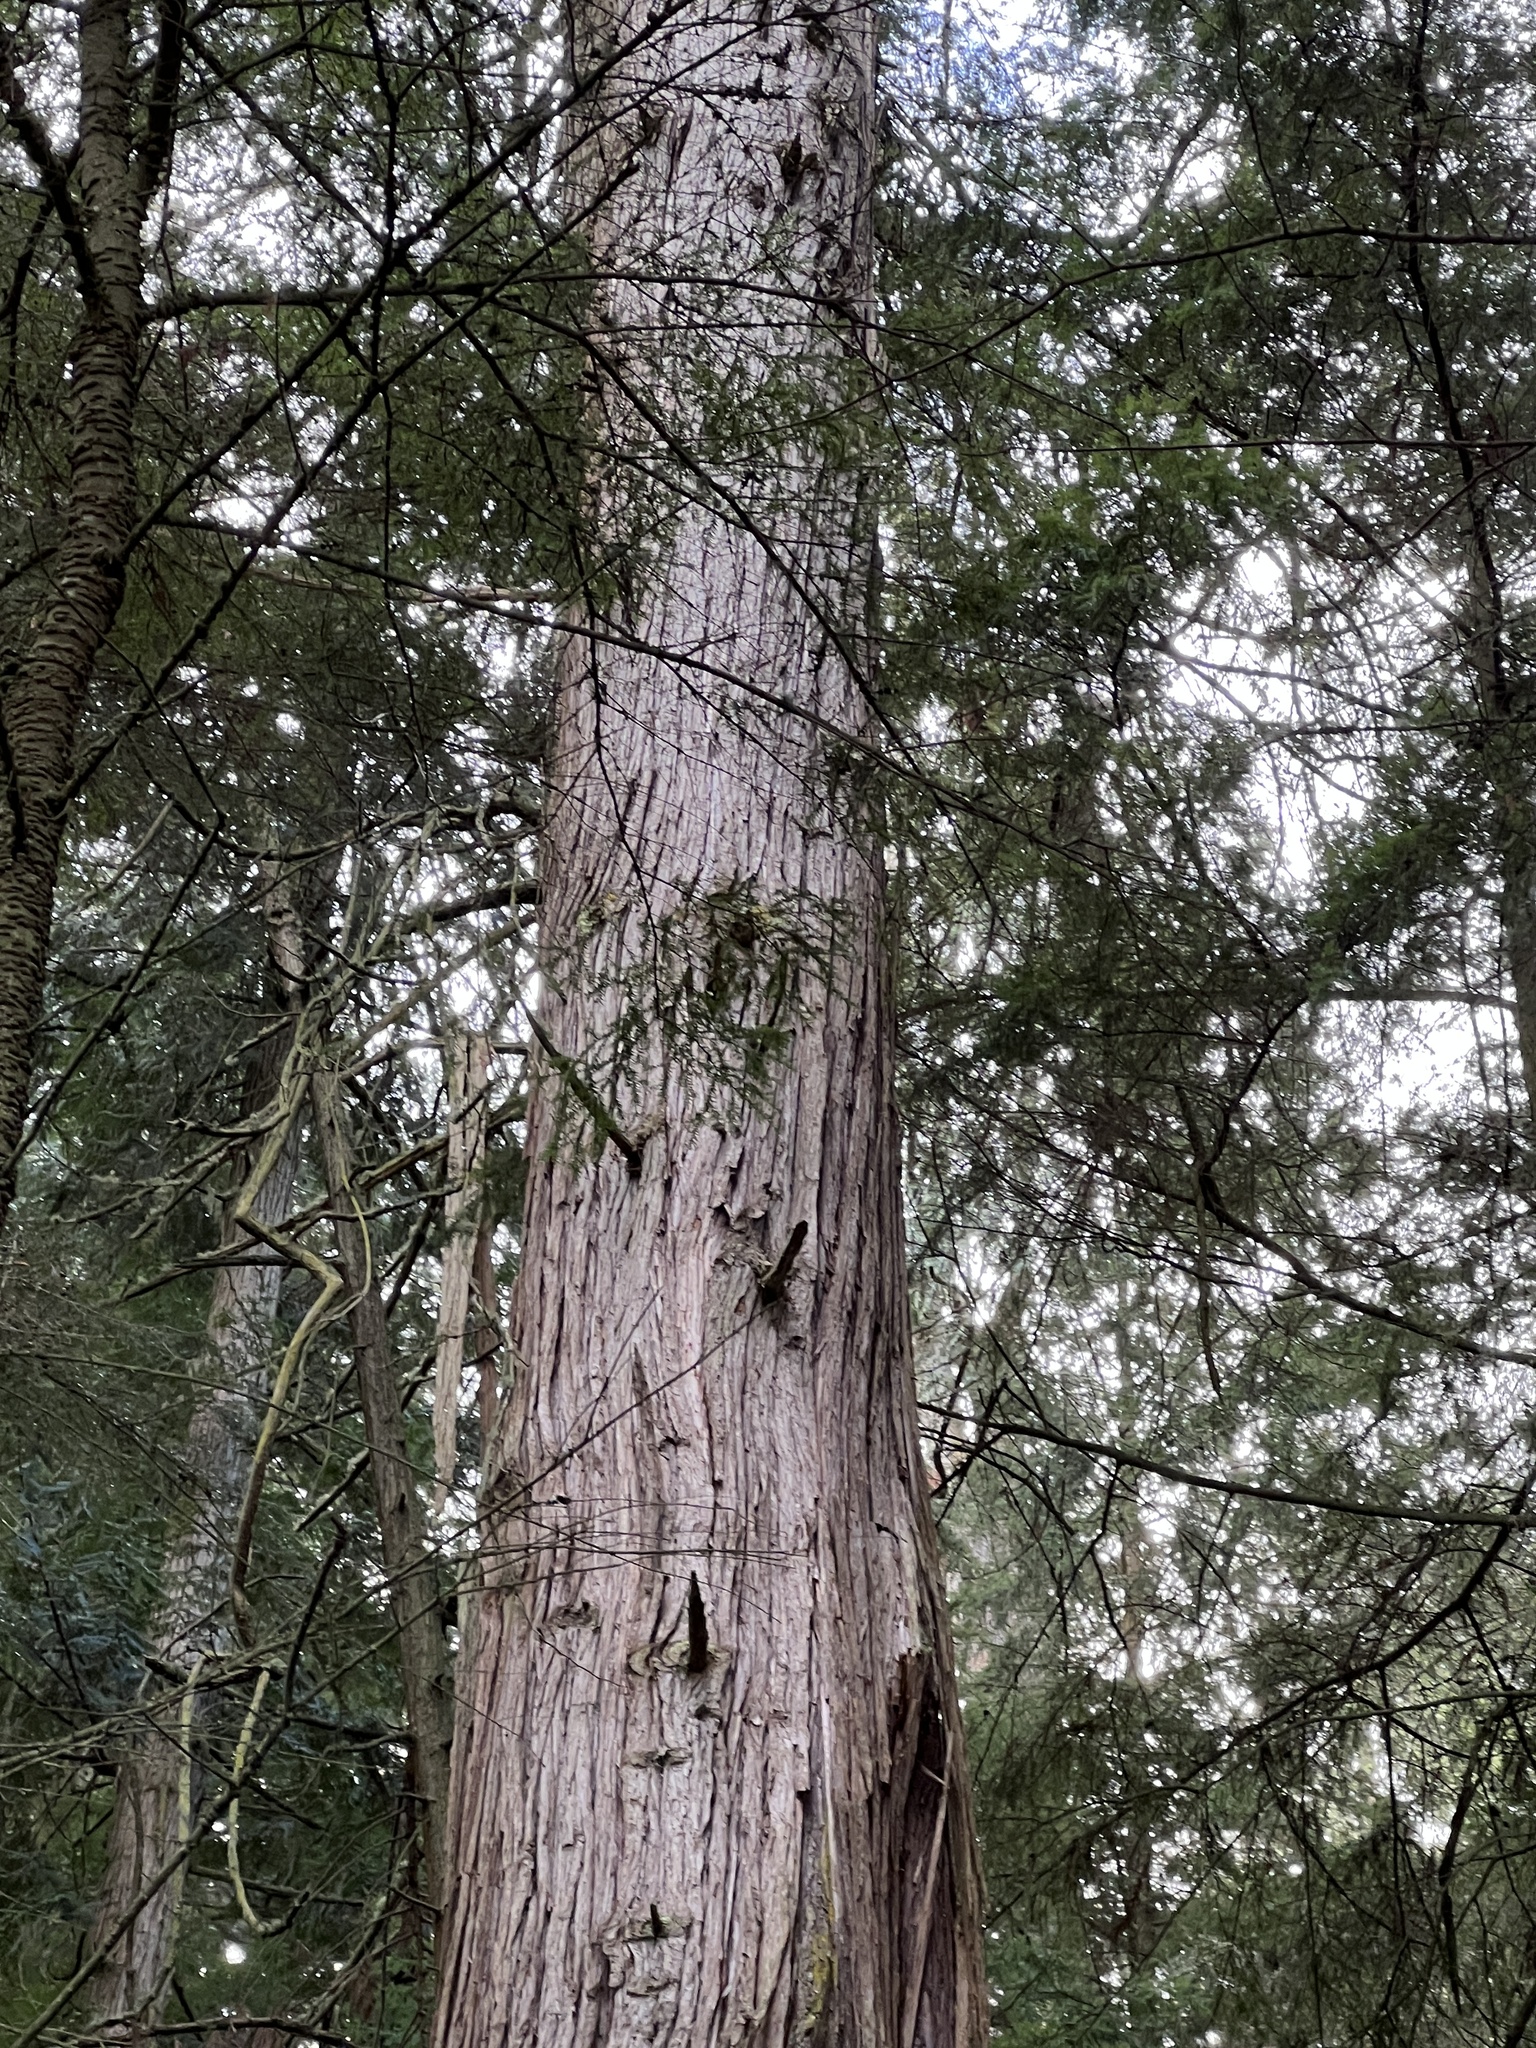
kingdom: Plantae
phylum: Tracheophyta
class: Pinopsida
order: Pinales
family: Cupressaceae
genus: Thuja
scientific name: Thuja plicata
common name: Western red-cedar
